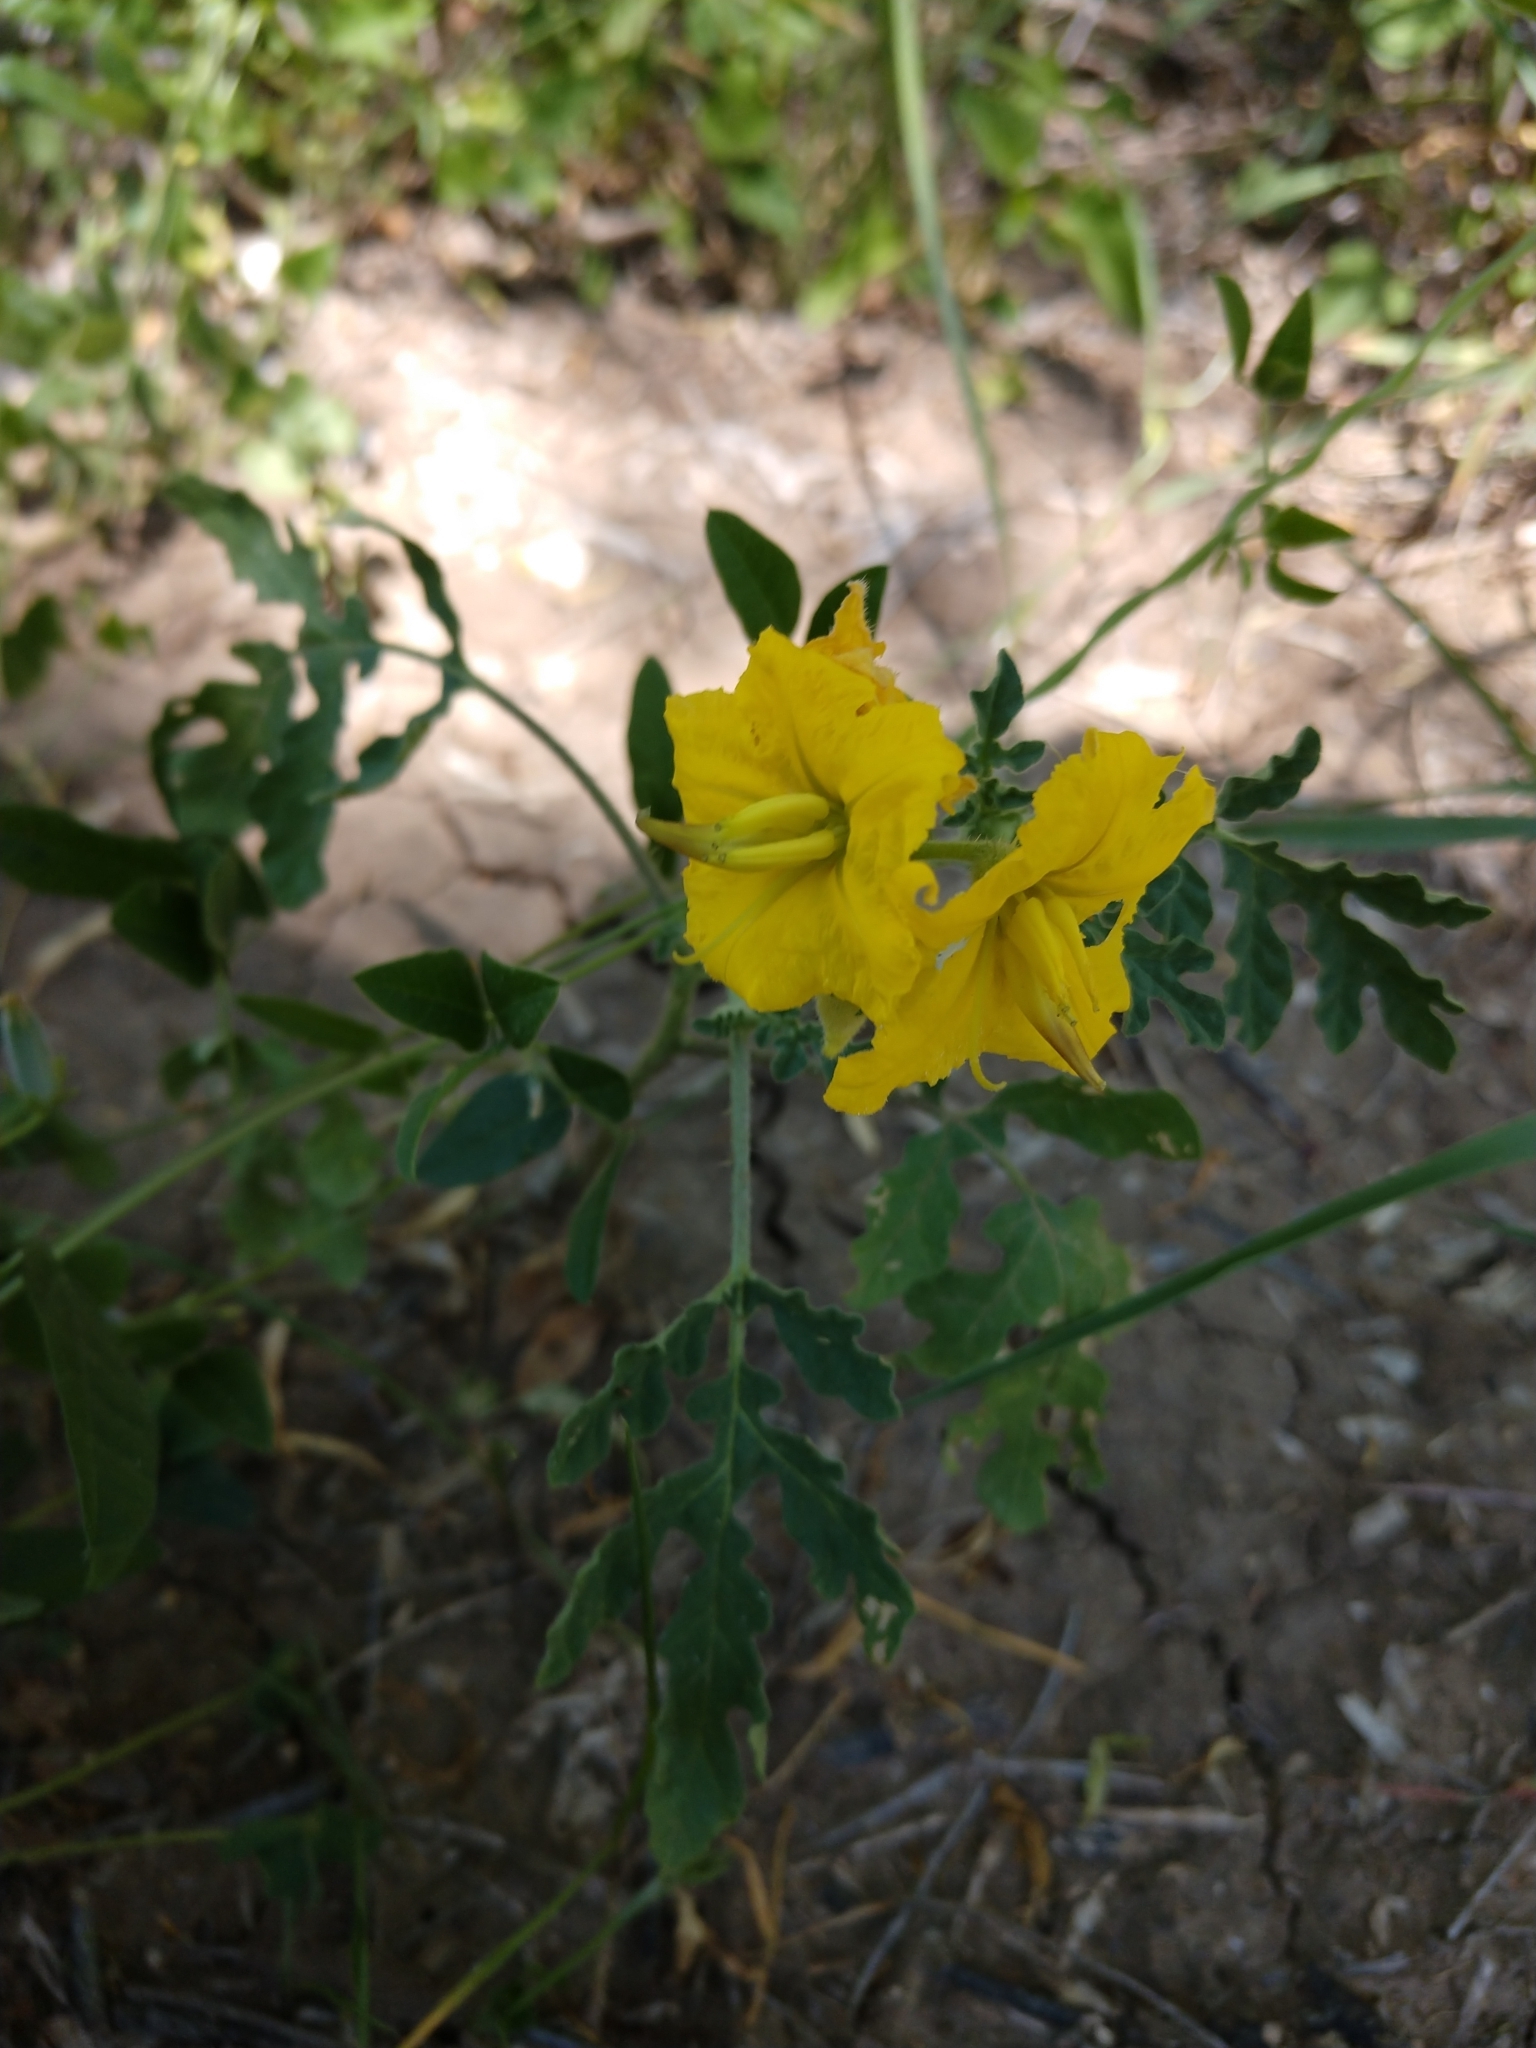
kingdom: Plantae
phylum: Tracheophyta
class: Magnoliopsida
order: Solanales
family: Solanaceae
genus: Solanum
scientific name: Solanum angustifolium
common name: Buffalobur nightshade
